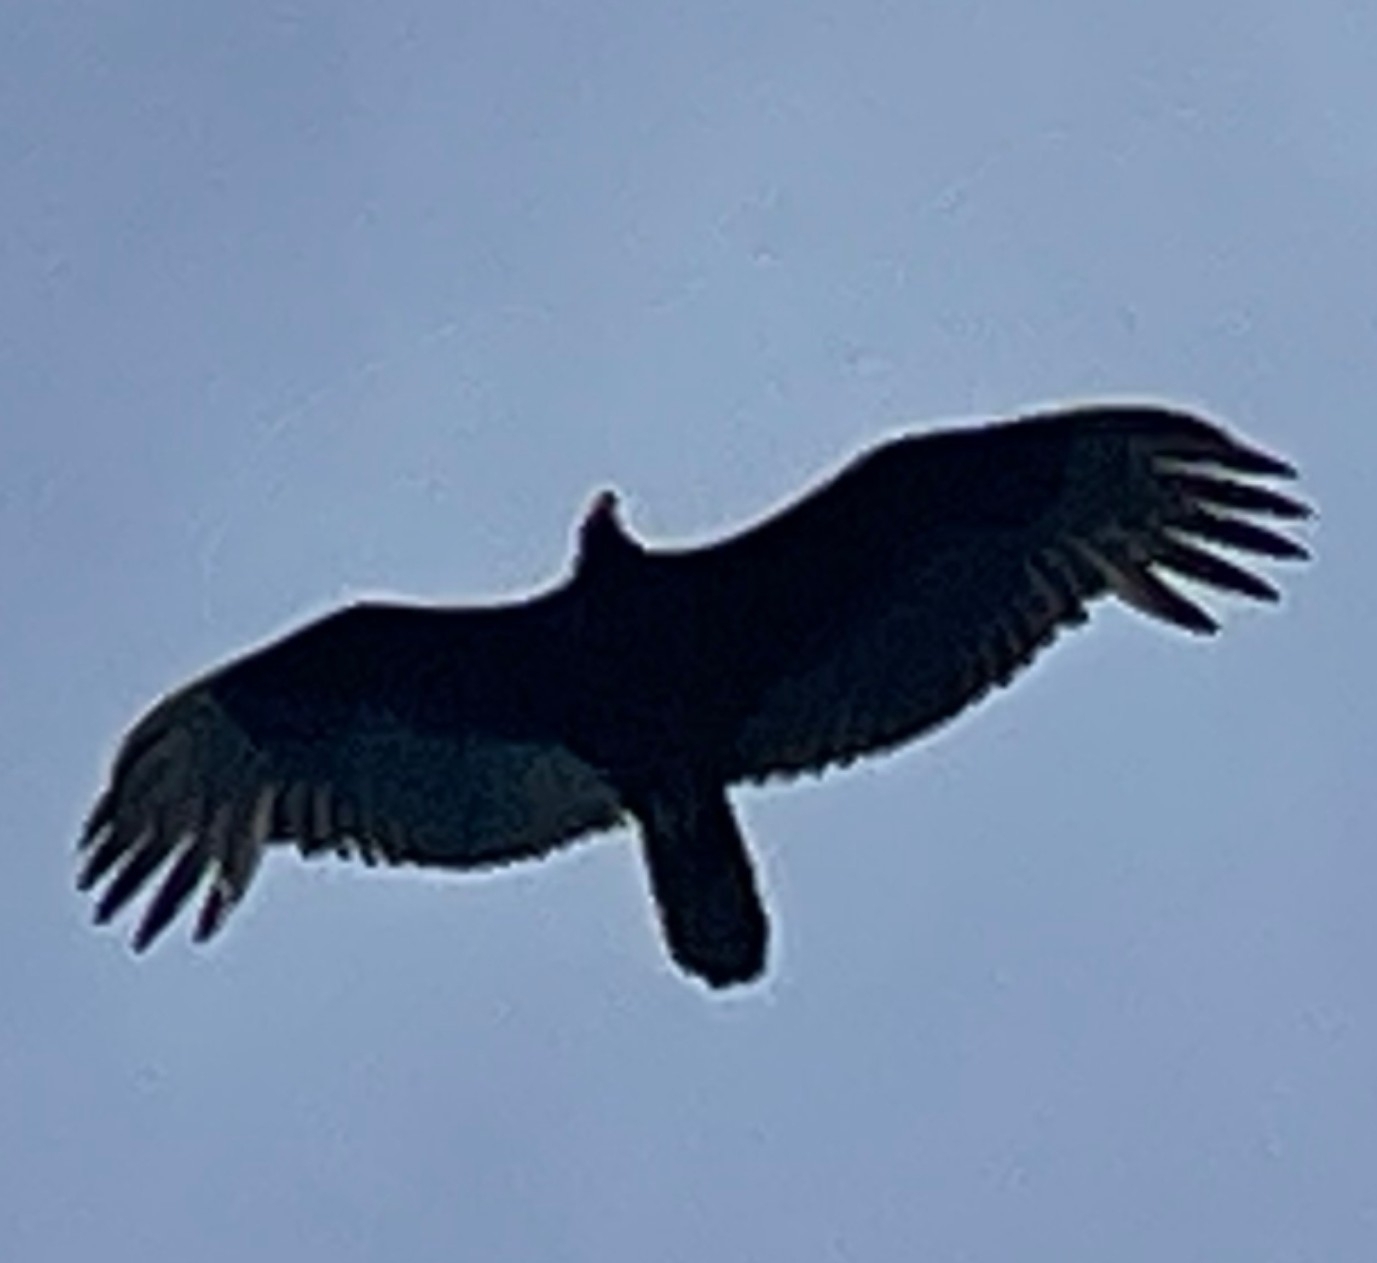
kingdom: Animalia
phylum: Chordata
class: Aves
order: Accipitriformes
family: Cathartidae
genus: Cathartes
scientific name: Cathartes aura
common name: Turkey vulture
